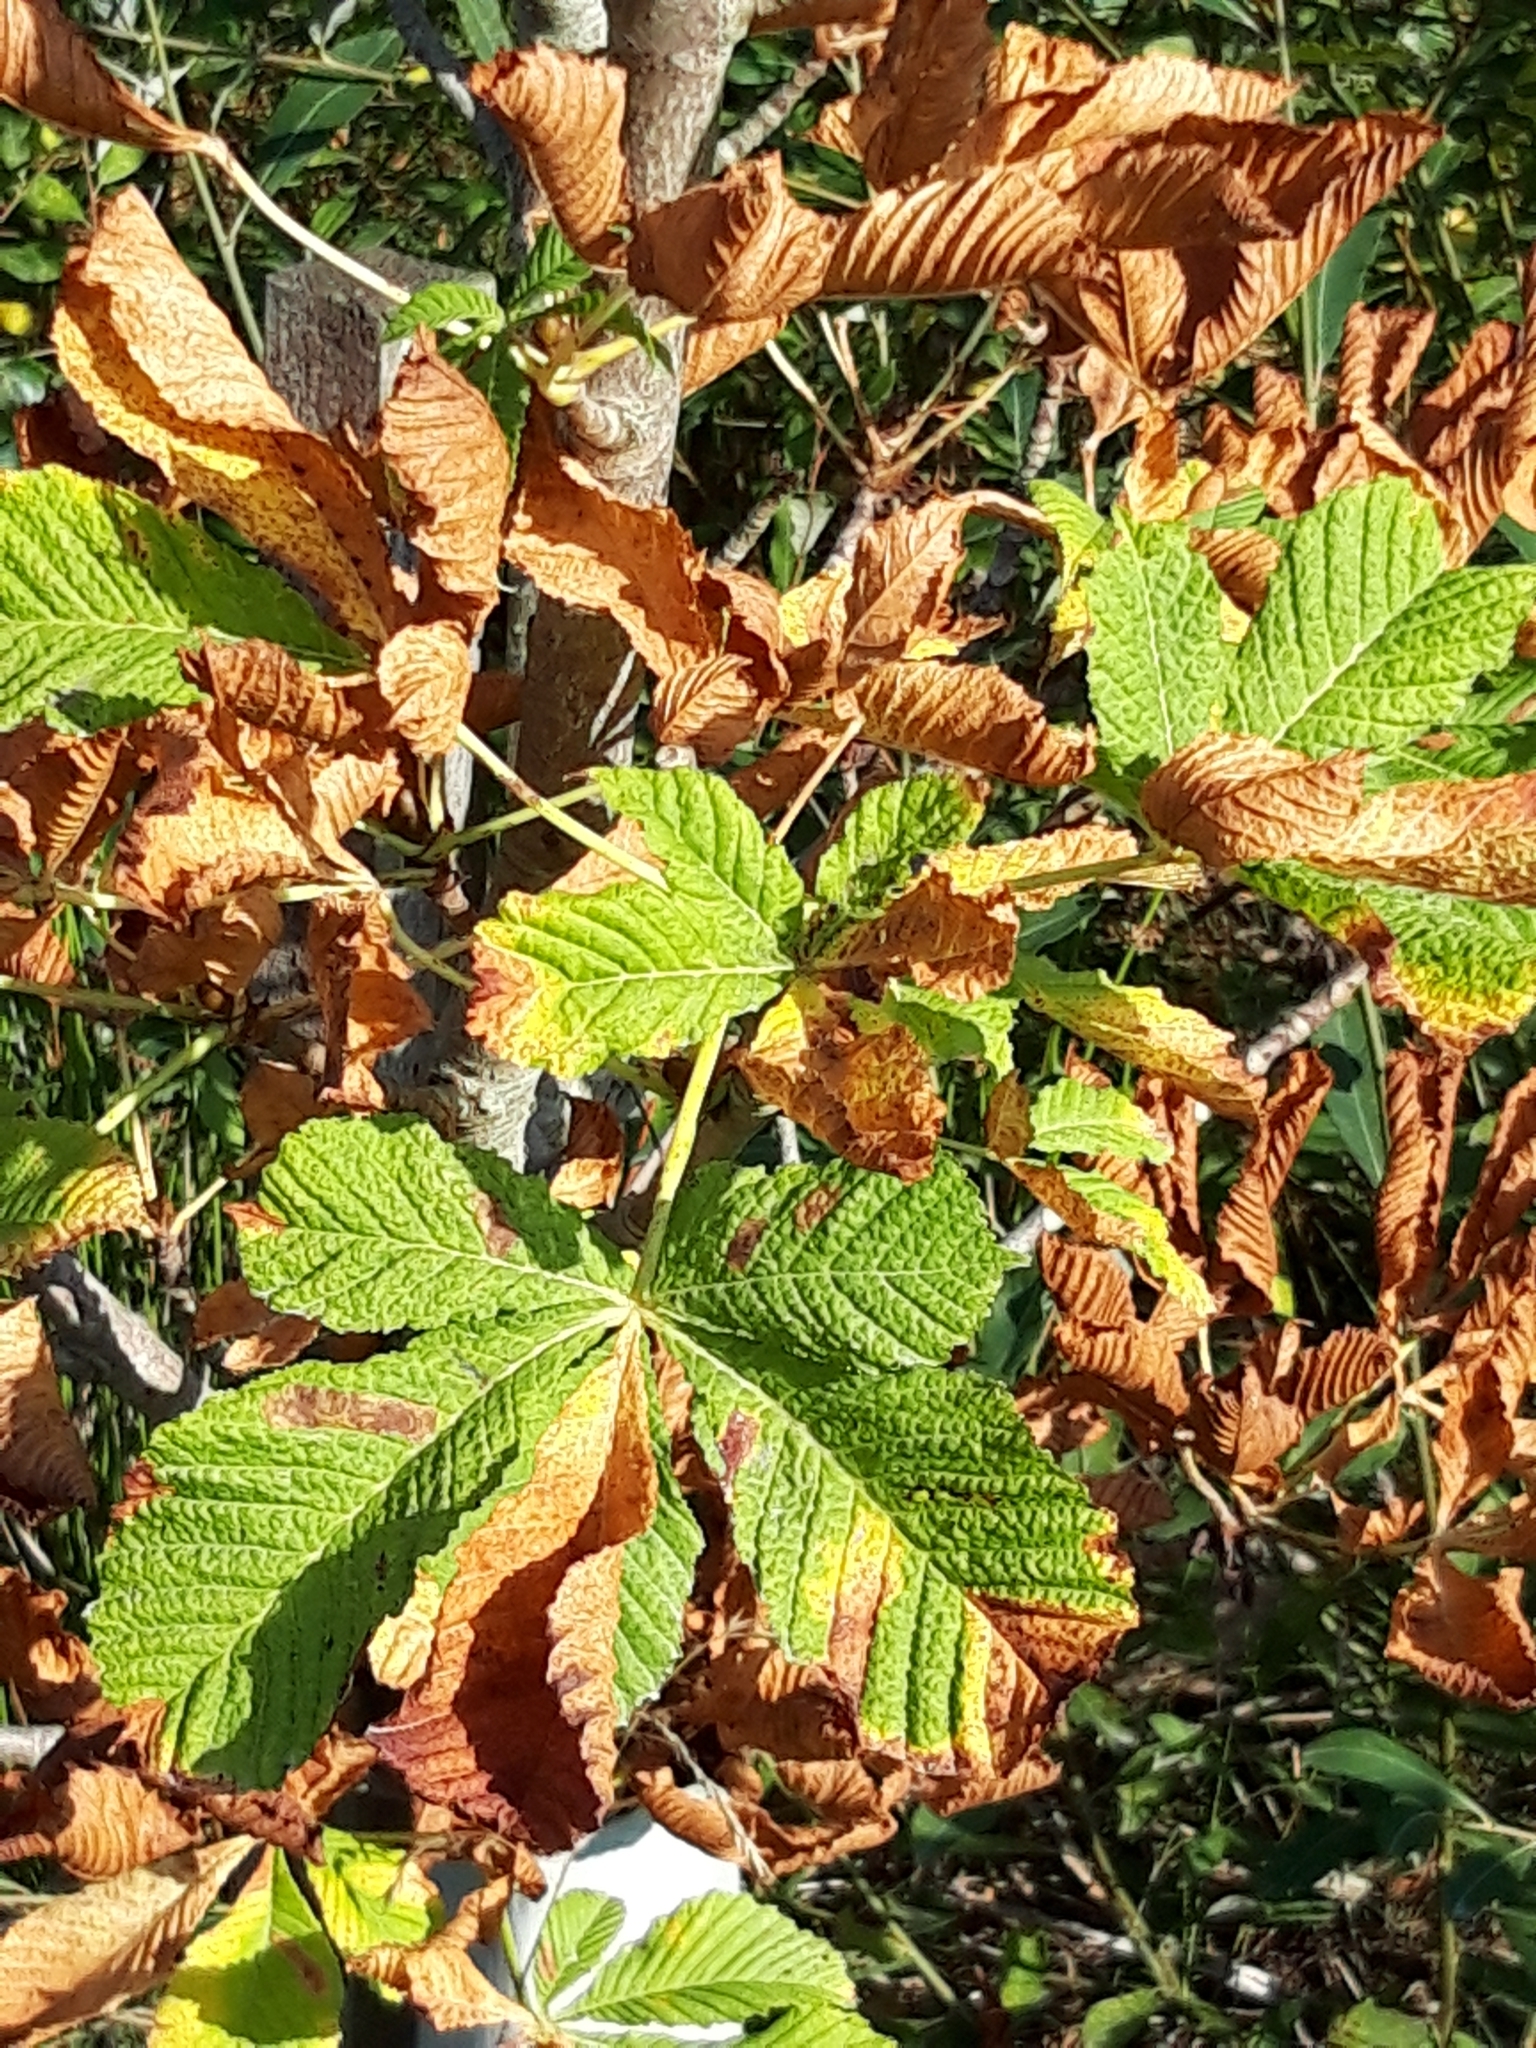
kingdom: Plantae
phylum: Tracheophyta
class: Magnoliopsida
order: Sapindales
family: Sapindaceae
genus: Aesculus
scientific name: Aesculus hippocastanum
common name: Horse-chestnut
